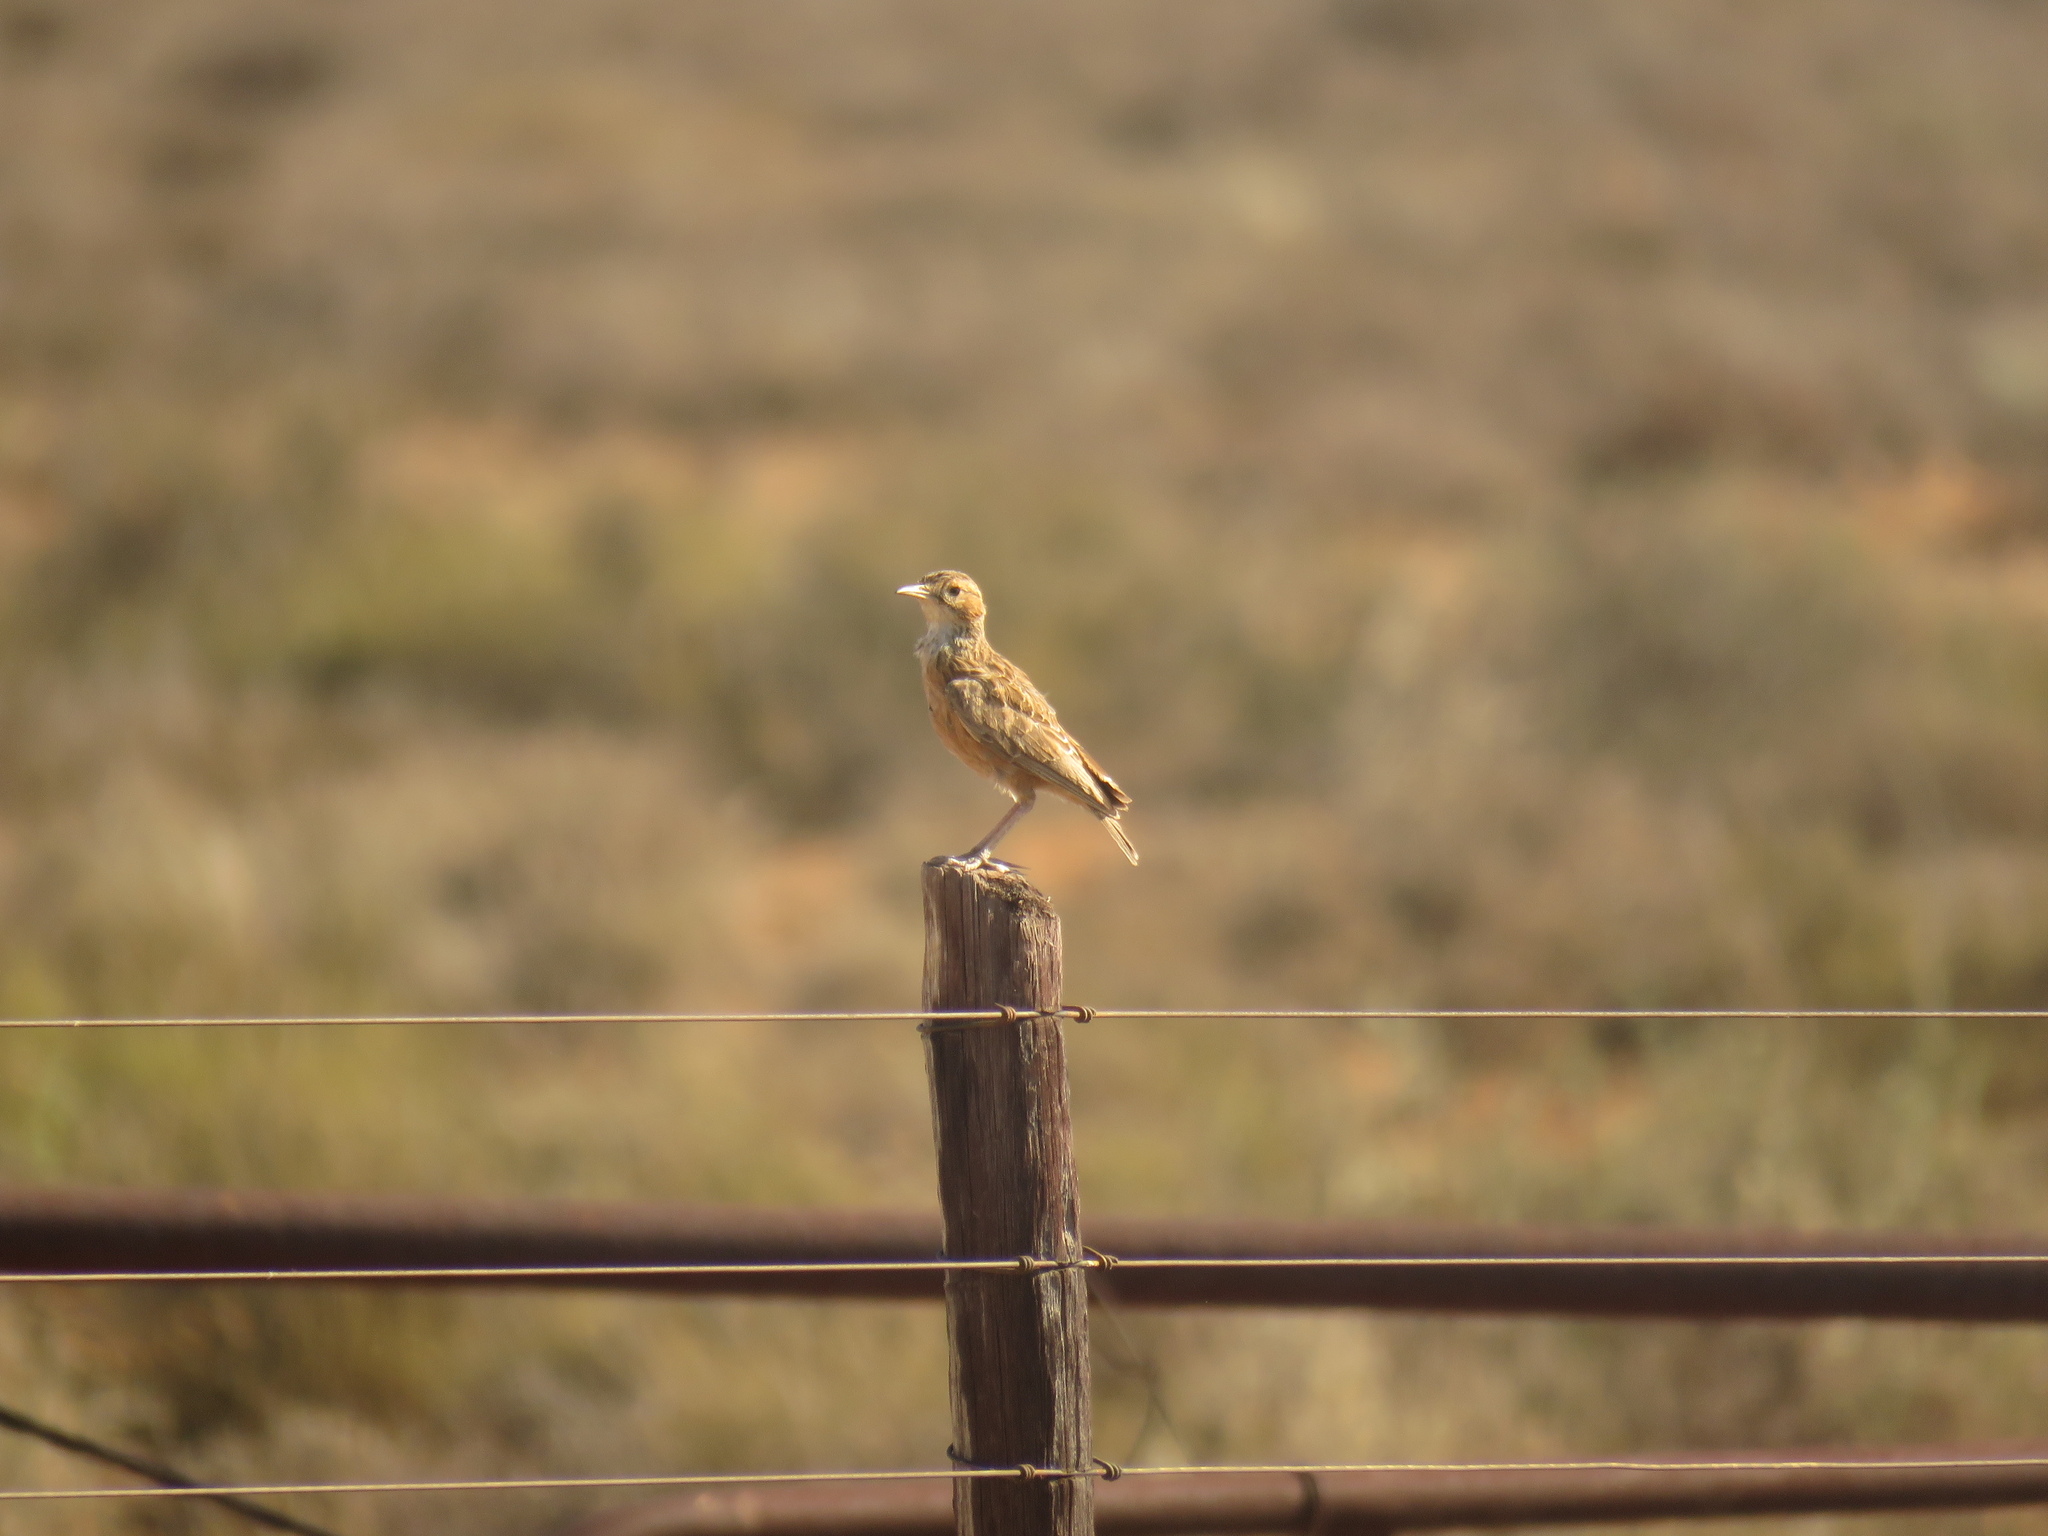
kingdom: Animalia
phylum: Chordata
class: Aves
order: Passeriformes
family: Alaudidae
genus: Chersomanes
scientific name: Chersomanes albofasciata
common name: Spike-heeled lark
